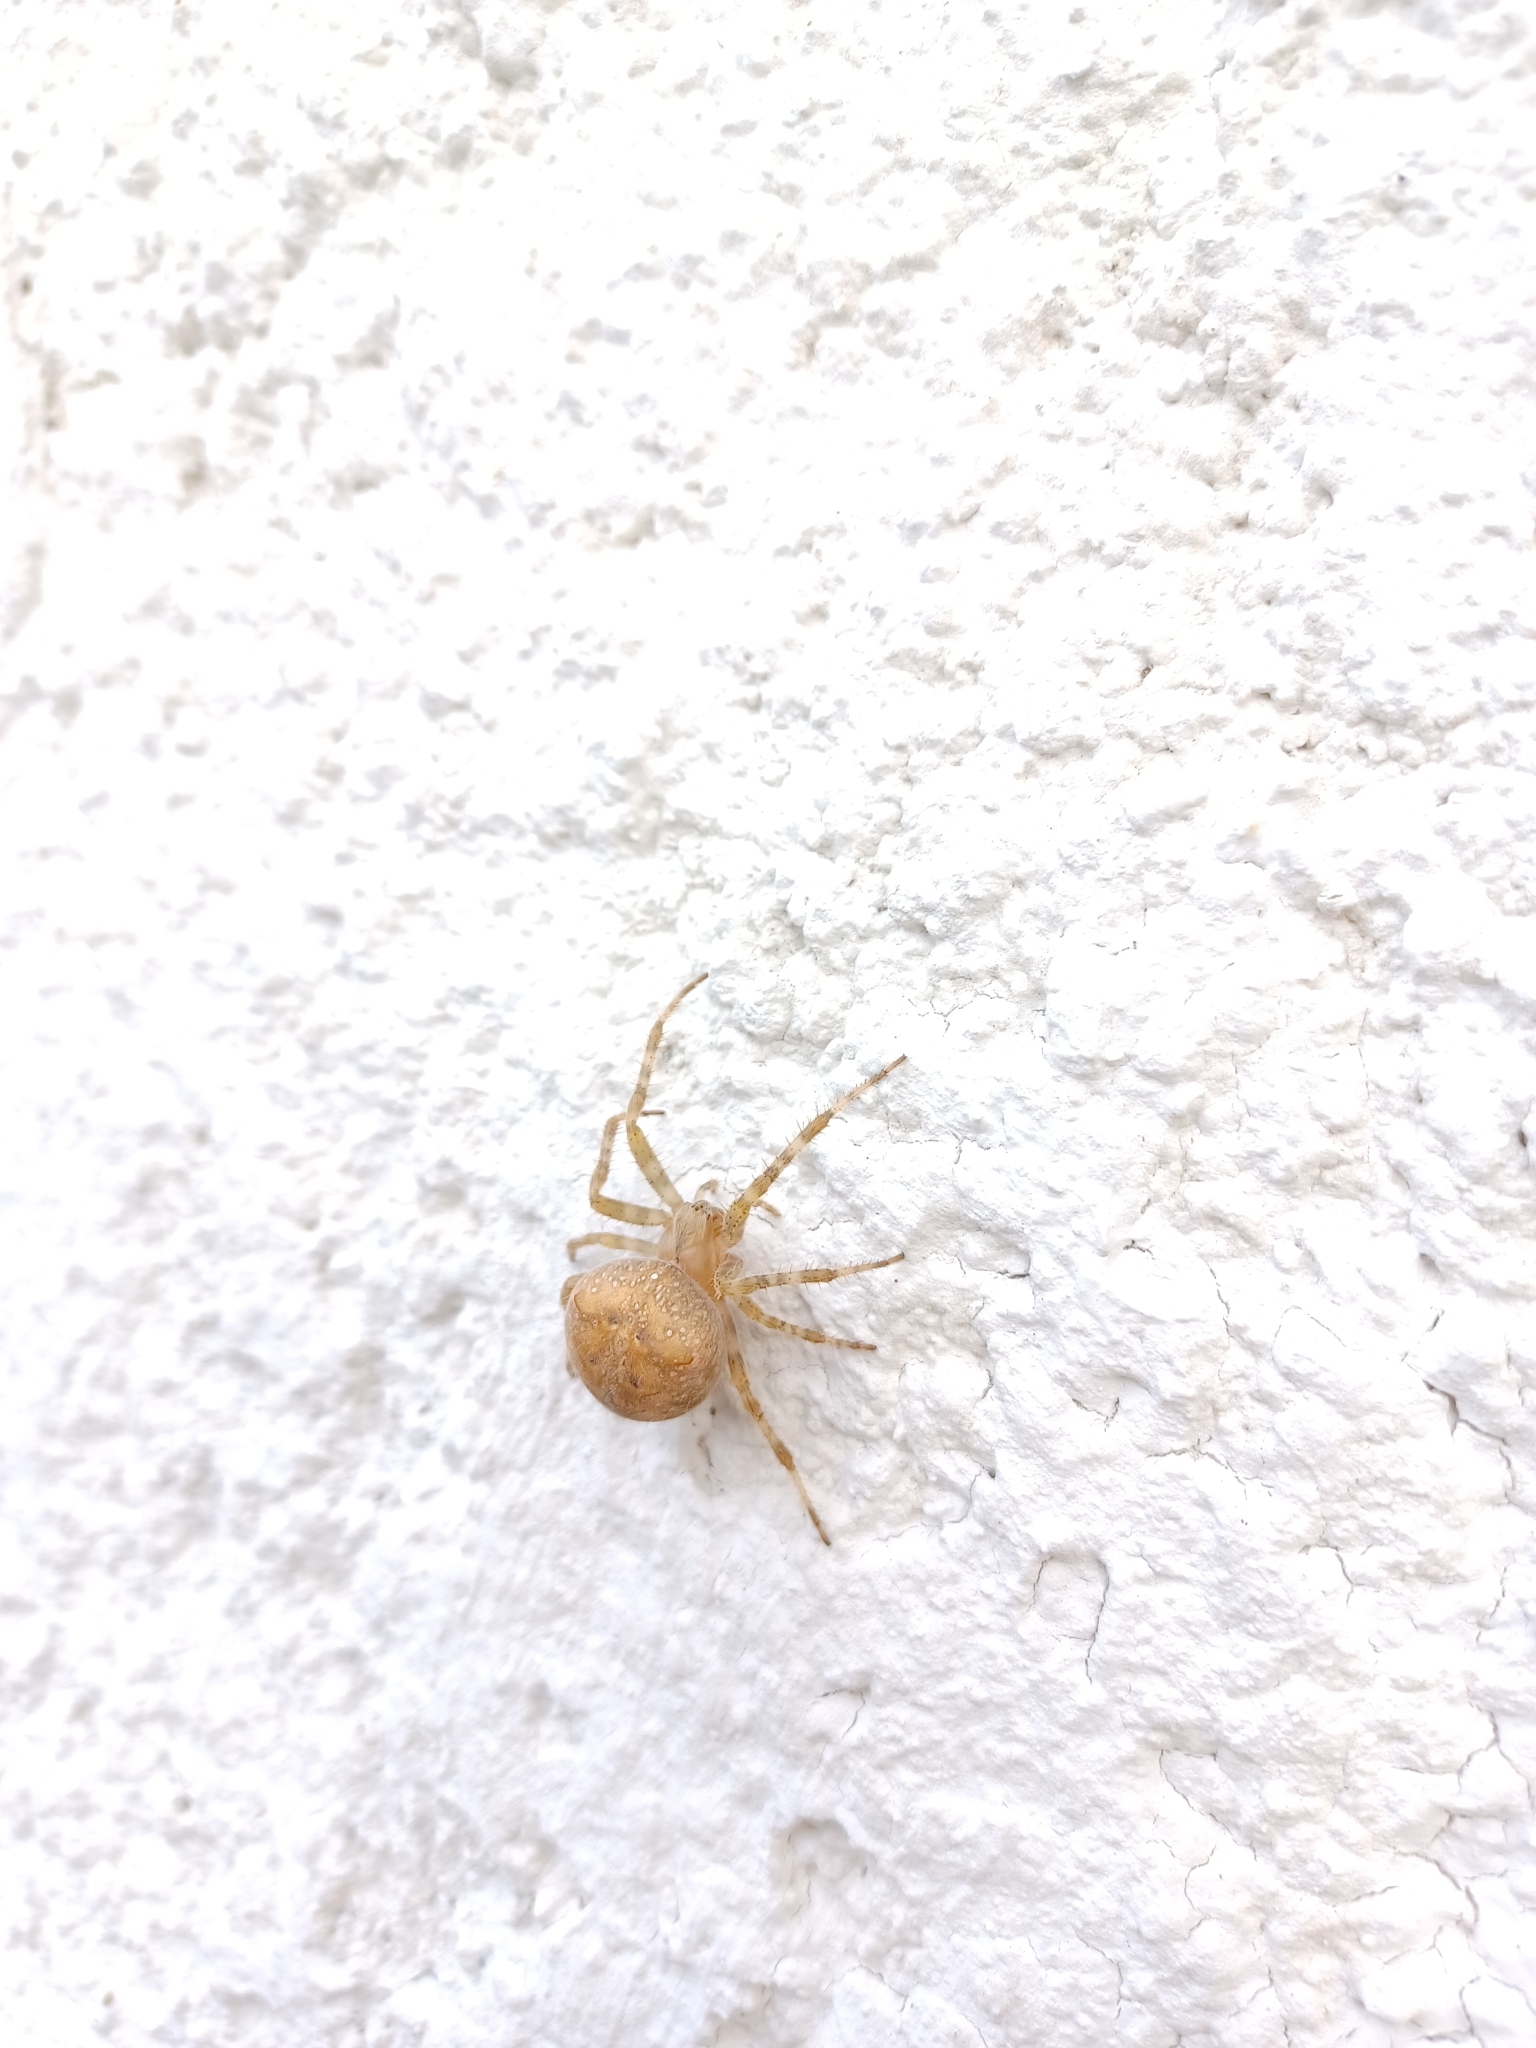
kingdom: Animalia
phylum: Arthropoda
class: Arachnida
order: Araneae
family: Araneidae
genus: Araneus
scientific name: Araneus diadematus
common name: Cross orbweaver
